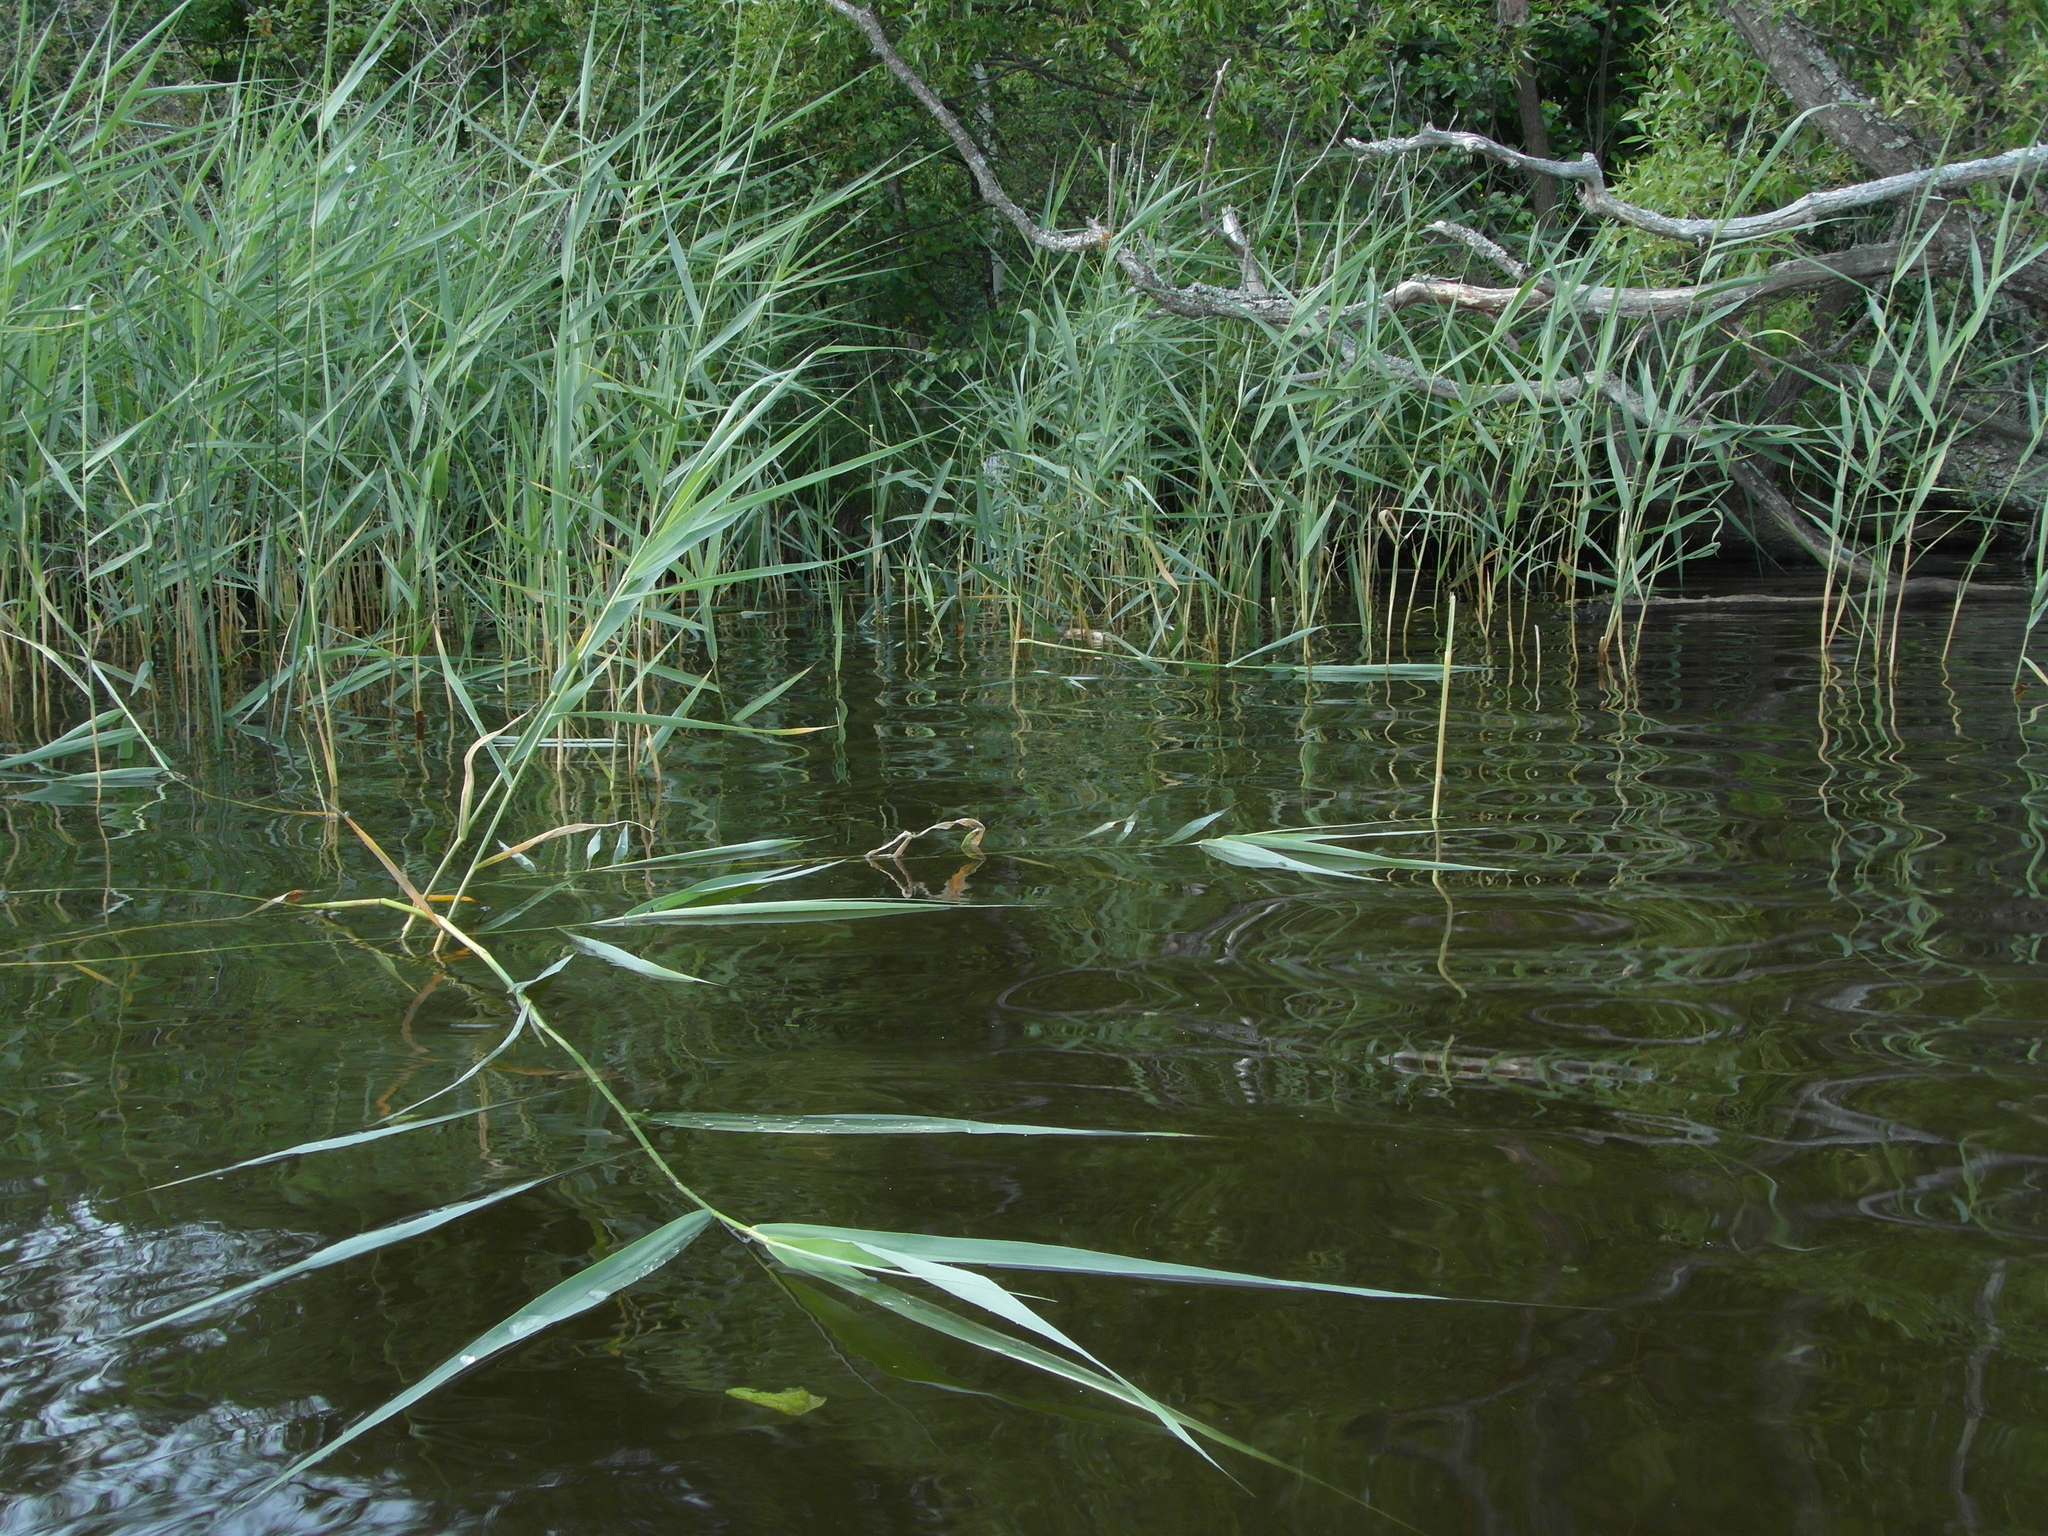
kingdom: Plantae
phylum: Tracheophyta
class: Liliopsida
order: Poales
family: Poaceae
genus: Phragmites
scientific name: Phragmites australis
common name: Common reed
